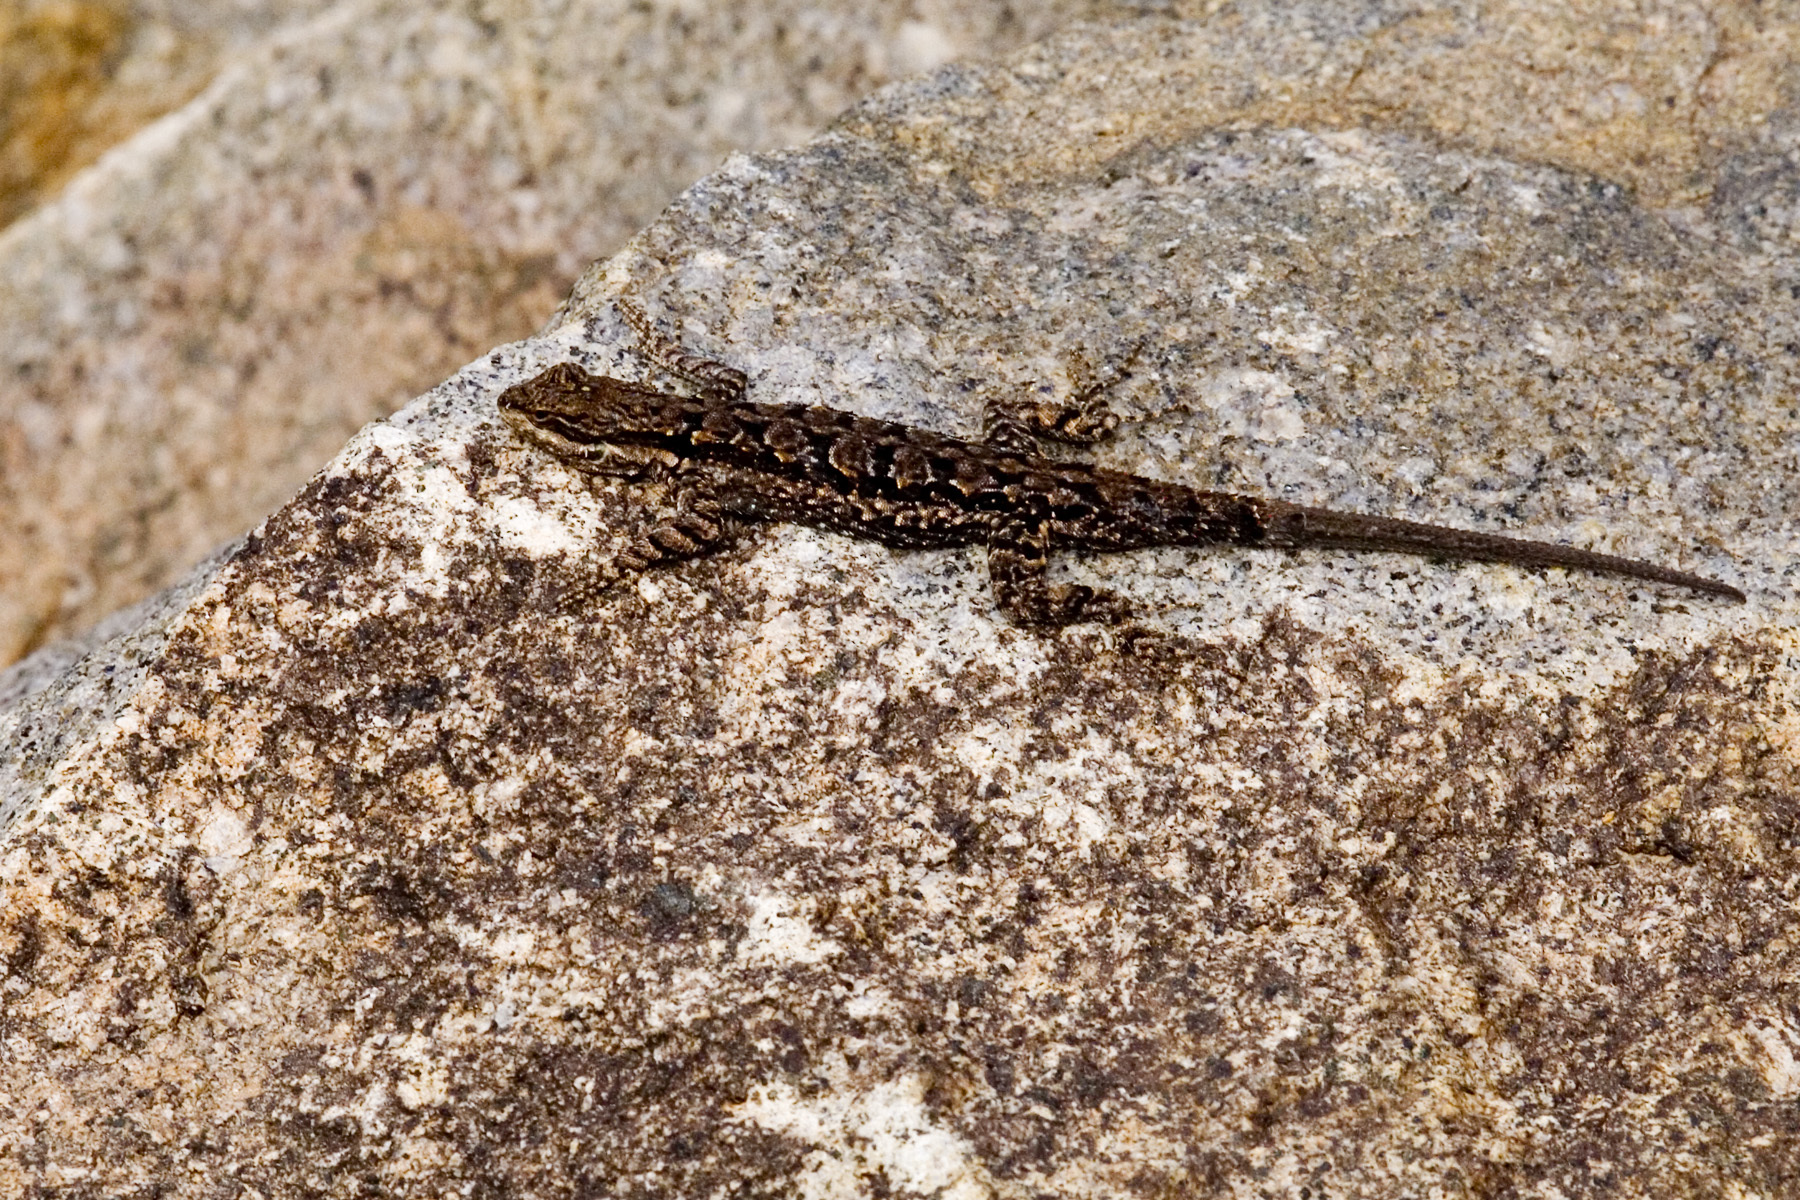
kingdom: Animalia
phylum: Chordata
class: Squamata
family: Phrynosomatidae
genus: Urosaurus
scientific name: Urosaurus ornatus
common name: Ornate tree lizard
